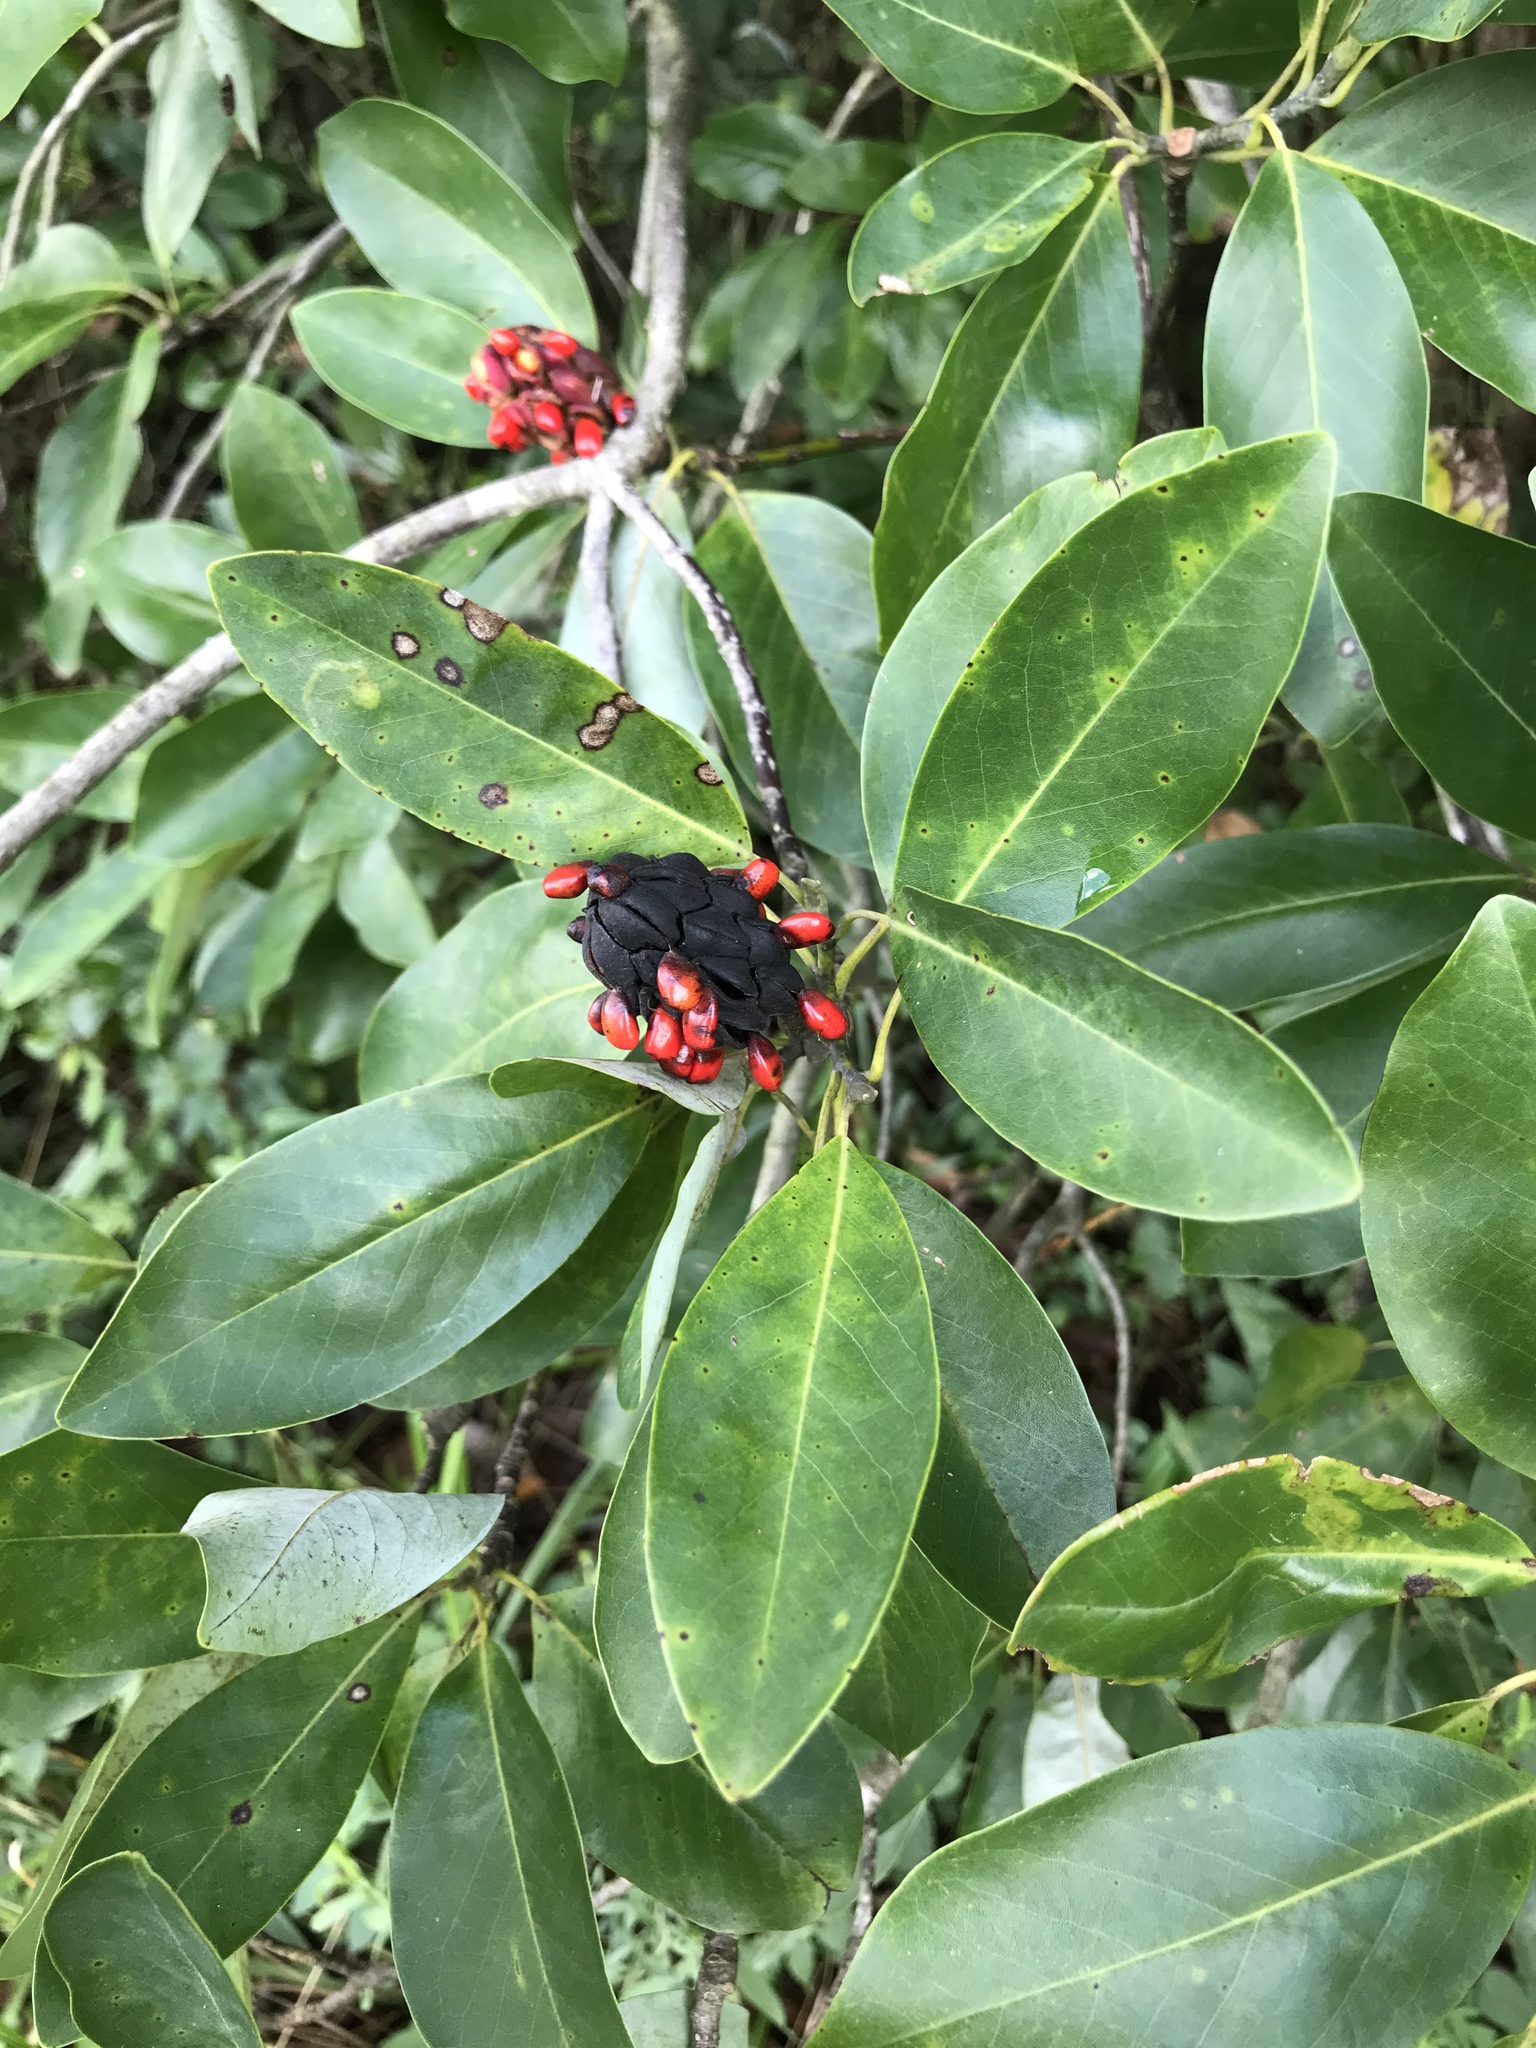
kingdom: Plantae
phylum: Tracheophyta
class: Magnoliopsida
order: Magnoliales
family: Magnoliaceae
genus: Magnolia
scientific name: Magnolia virginiana
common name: Swamp bay
